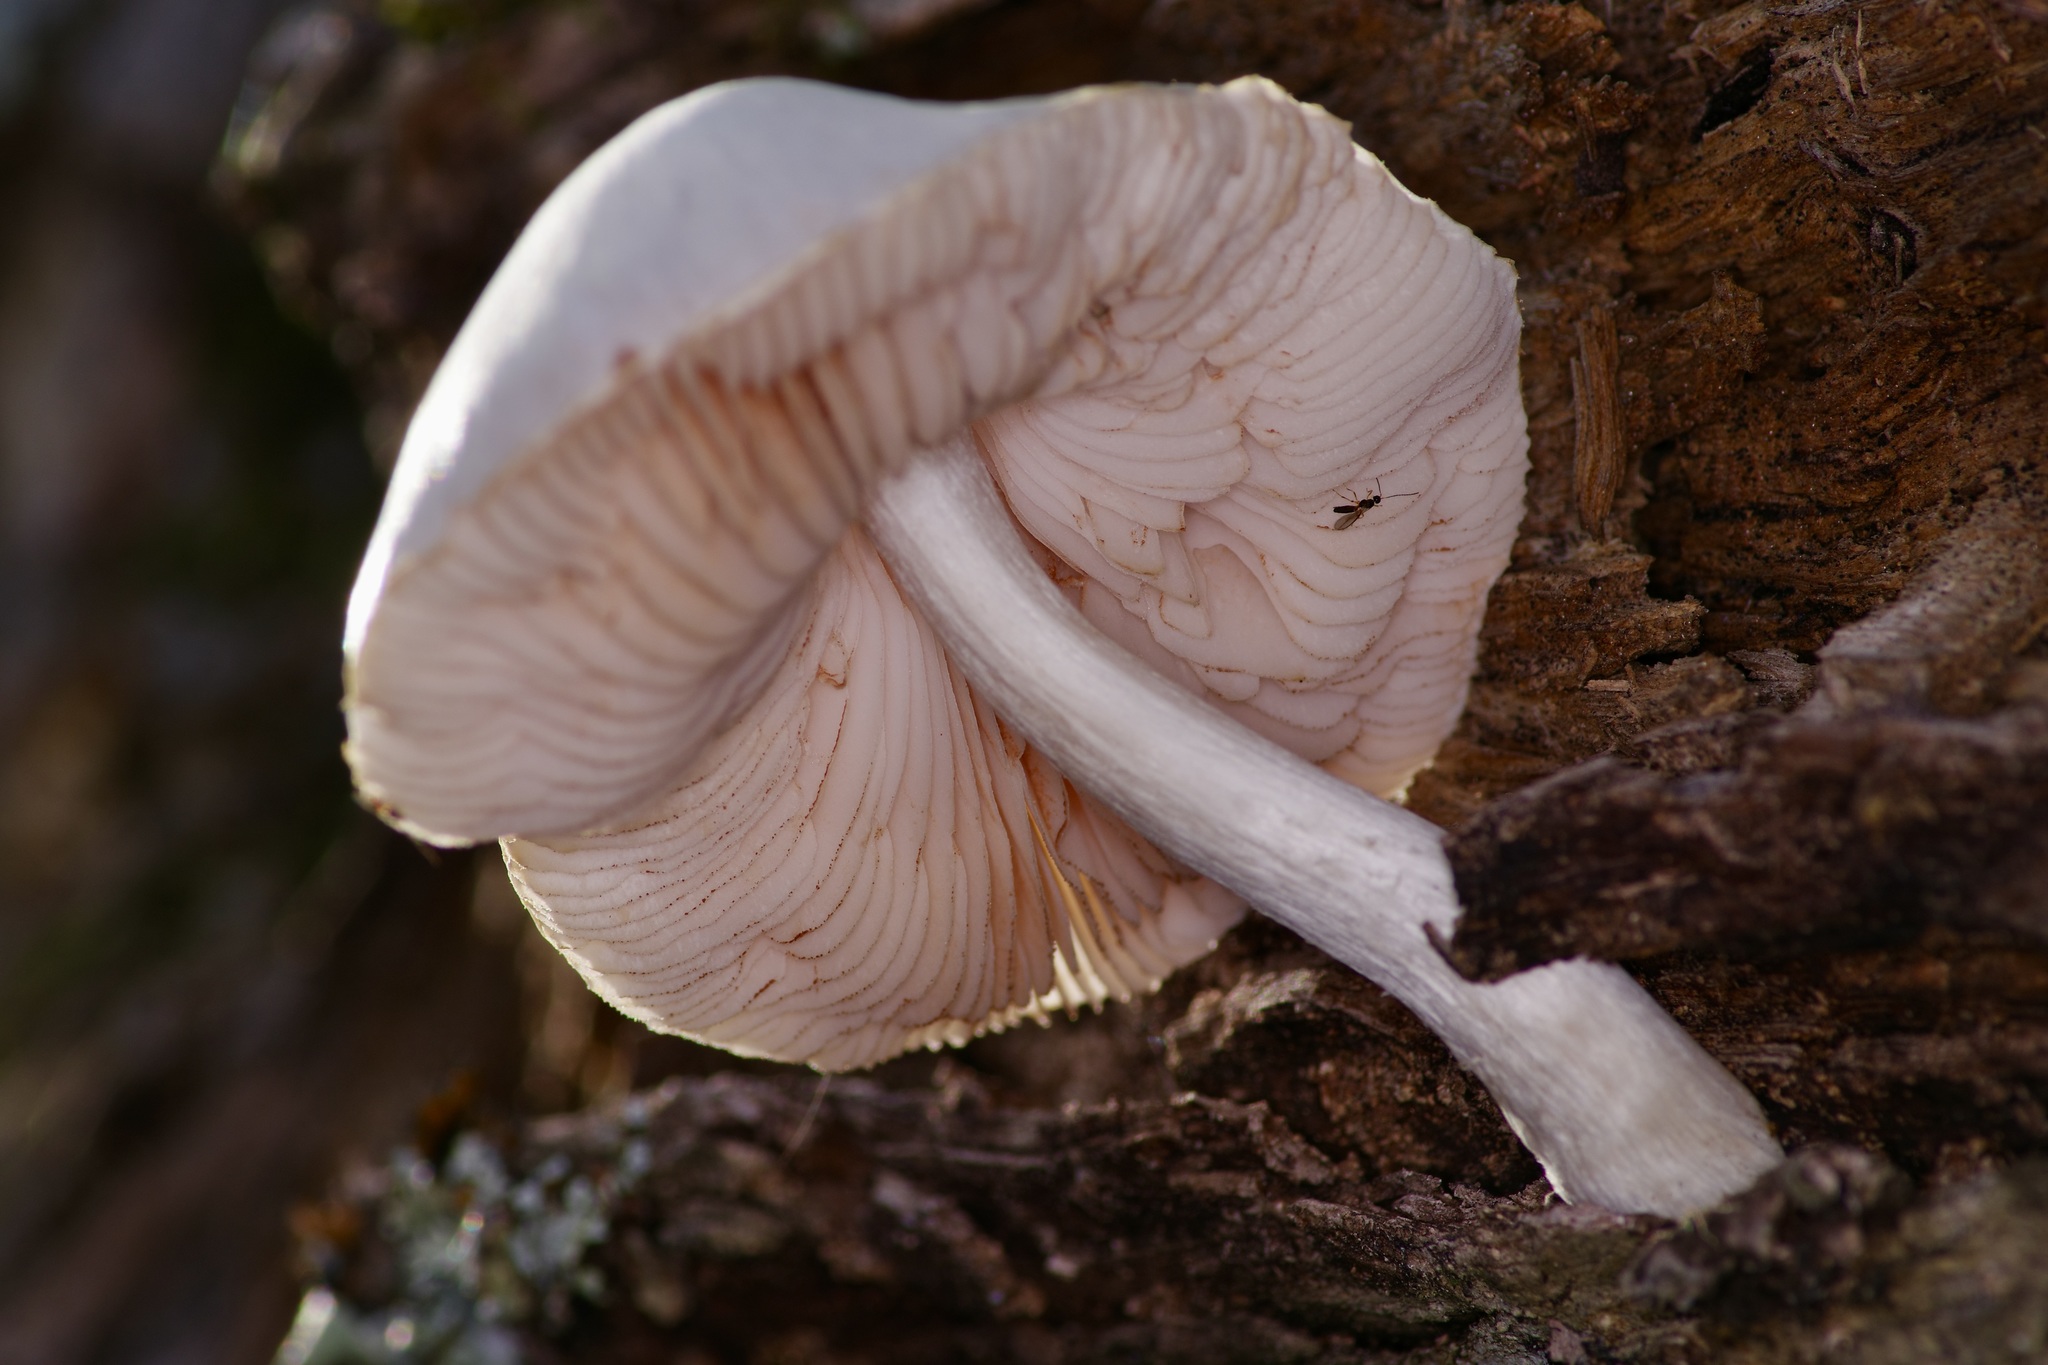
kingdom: Fungi
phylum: Basidiomycota
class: Agaricomycetes
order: Agaricales
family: Pluteaceae
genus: Pluteus
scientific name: Pluteus petasatus
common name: Scaly shield
